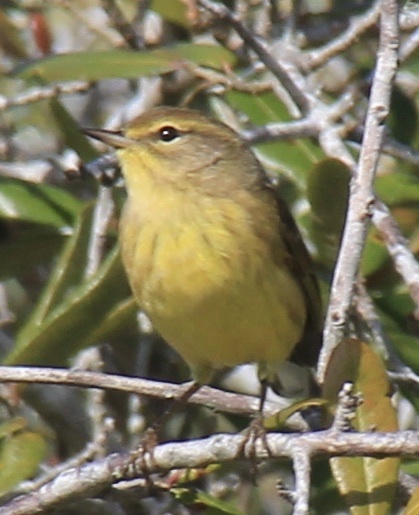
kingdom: Animalia
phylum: Chordata
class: Aves
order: Passeriformes
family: Parulidae
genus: Setophaga
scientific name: Setophaga palmarum
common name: Palm warbler
